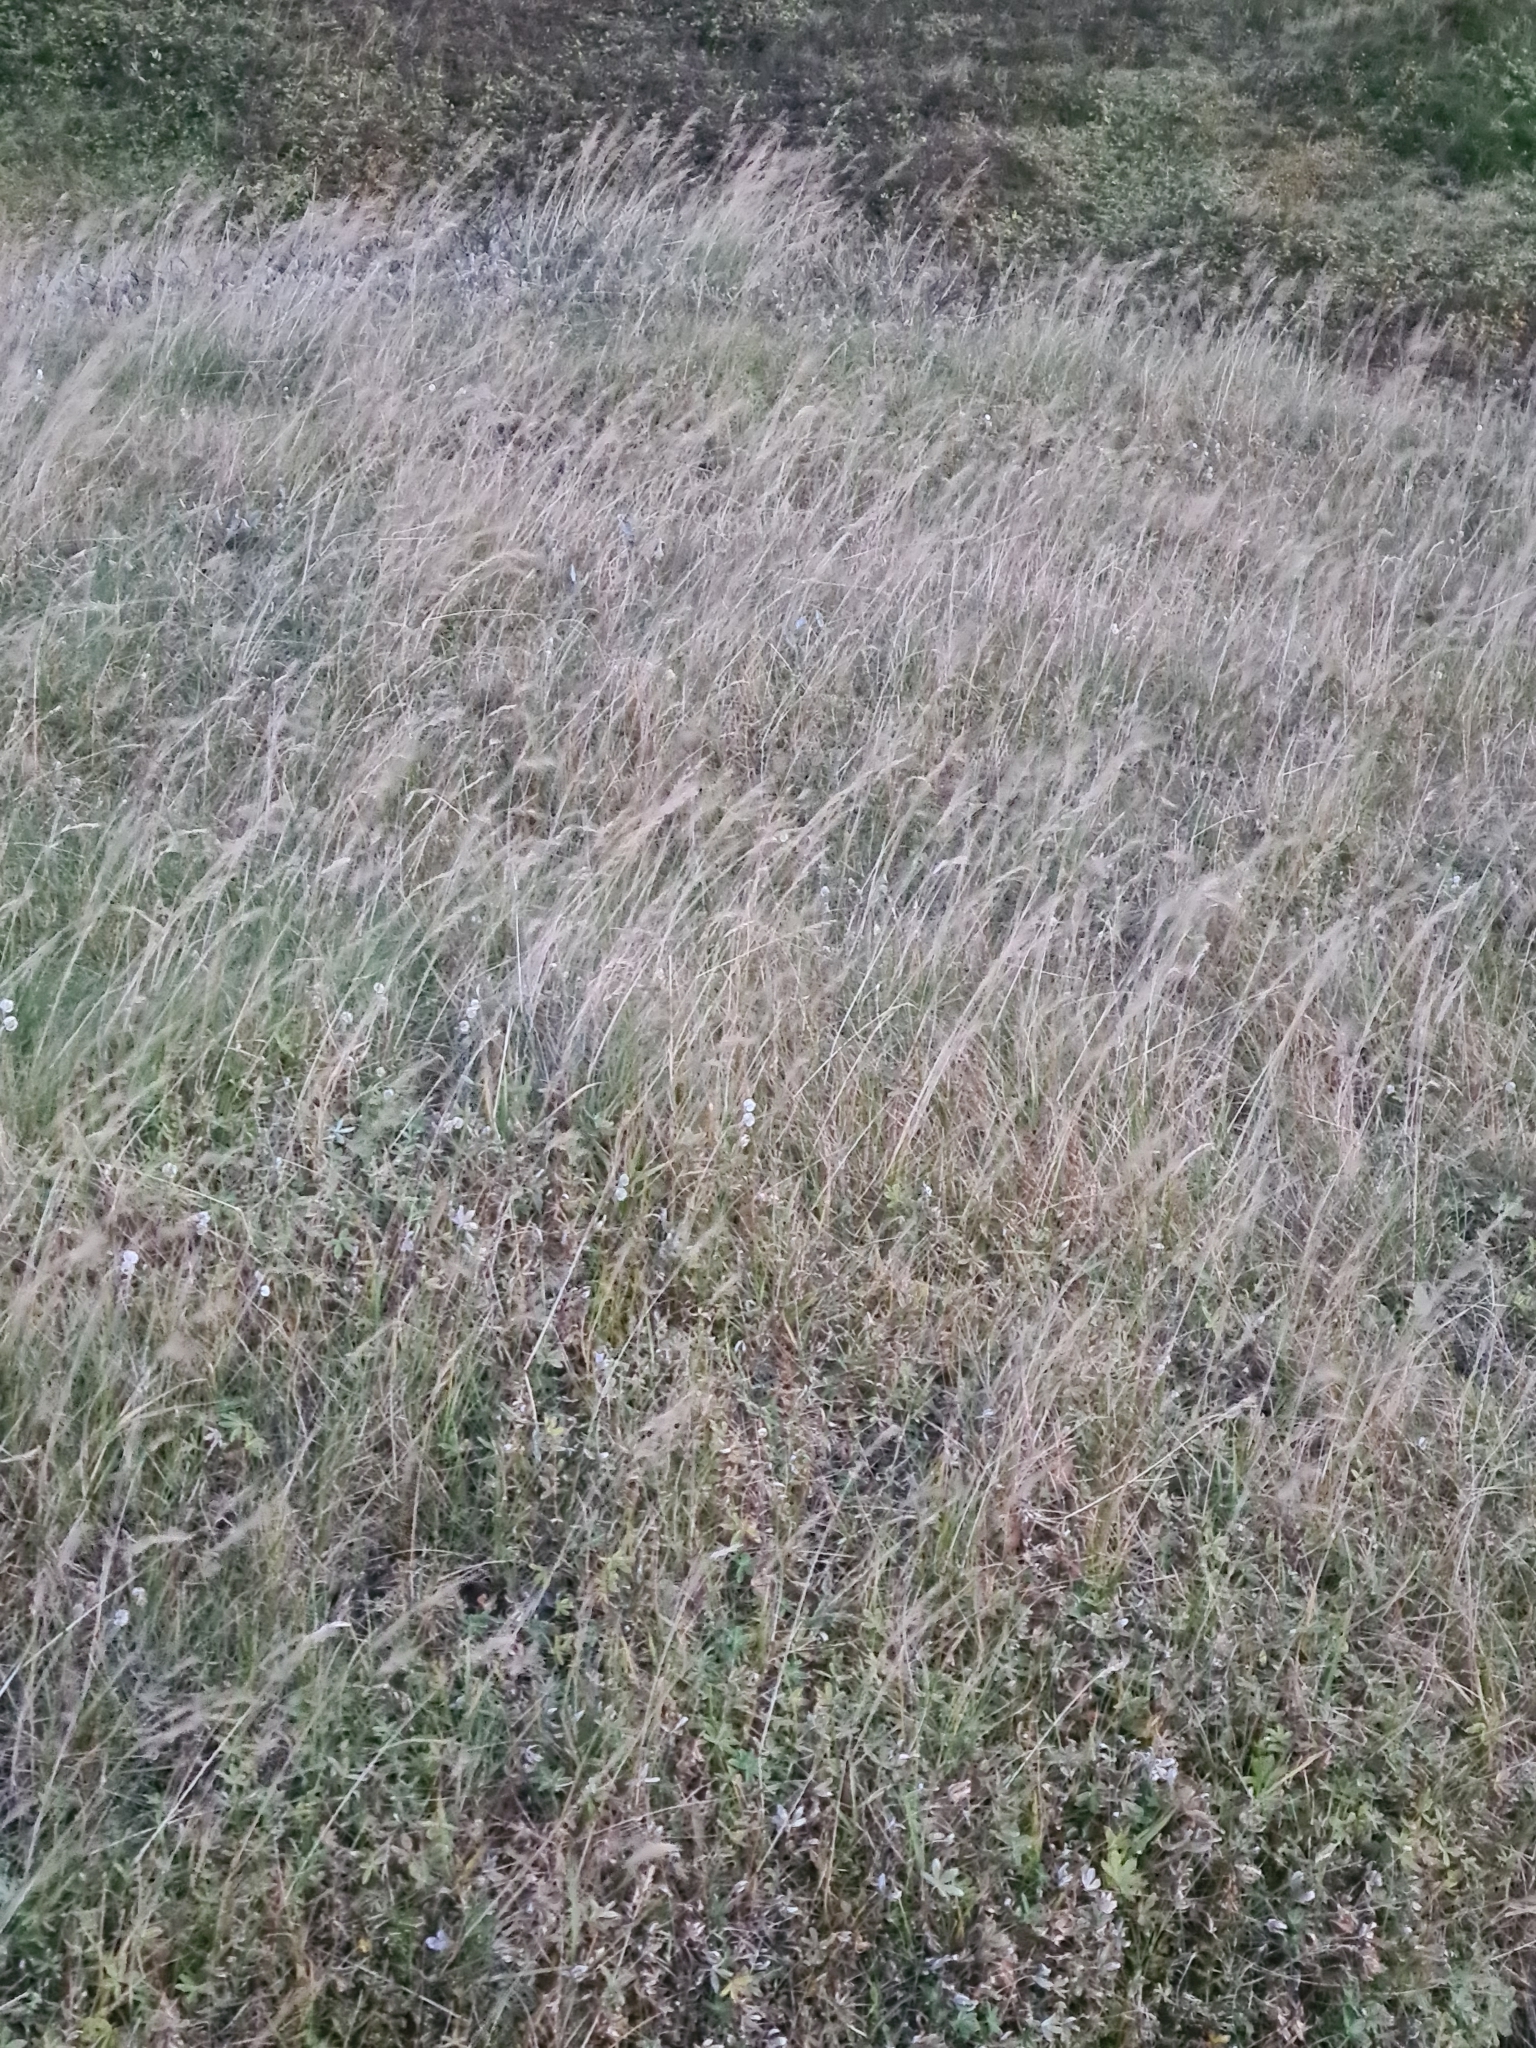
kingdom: Plantae
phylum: Tracheophyta
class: Liliopsida
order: Poales
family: Poaceae
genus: Festuca
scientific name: Festuca vivipara
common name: Viviparous sheep's-fescue
